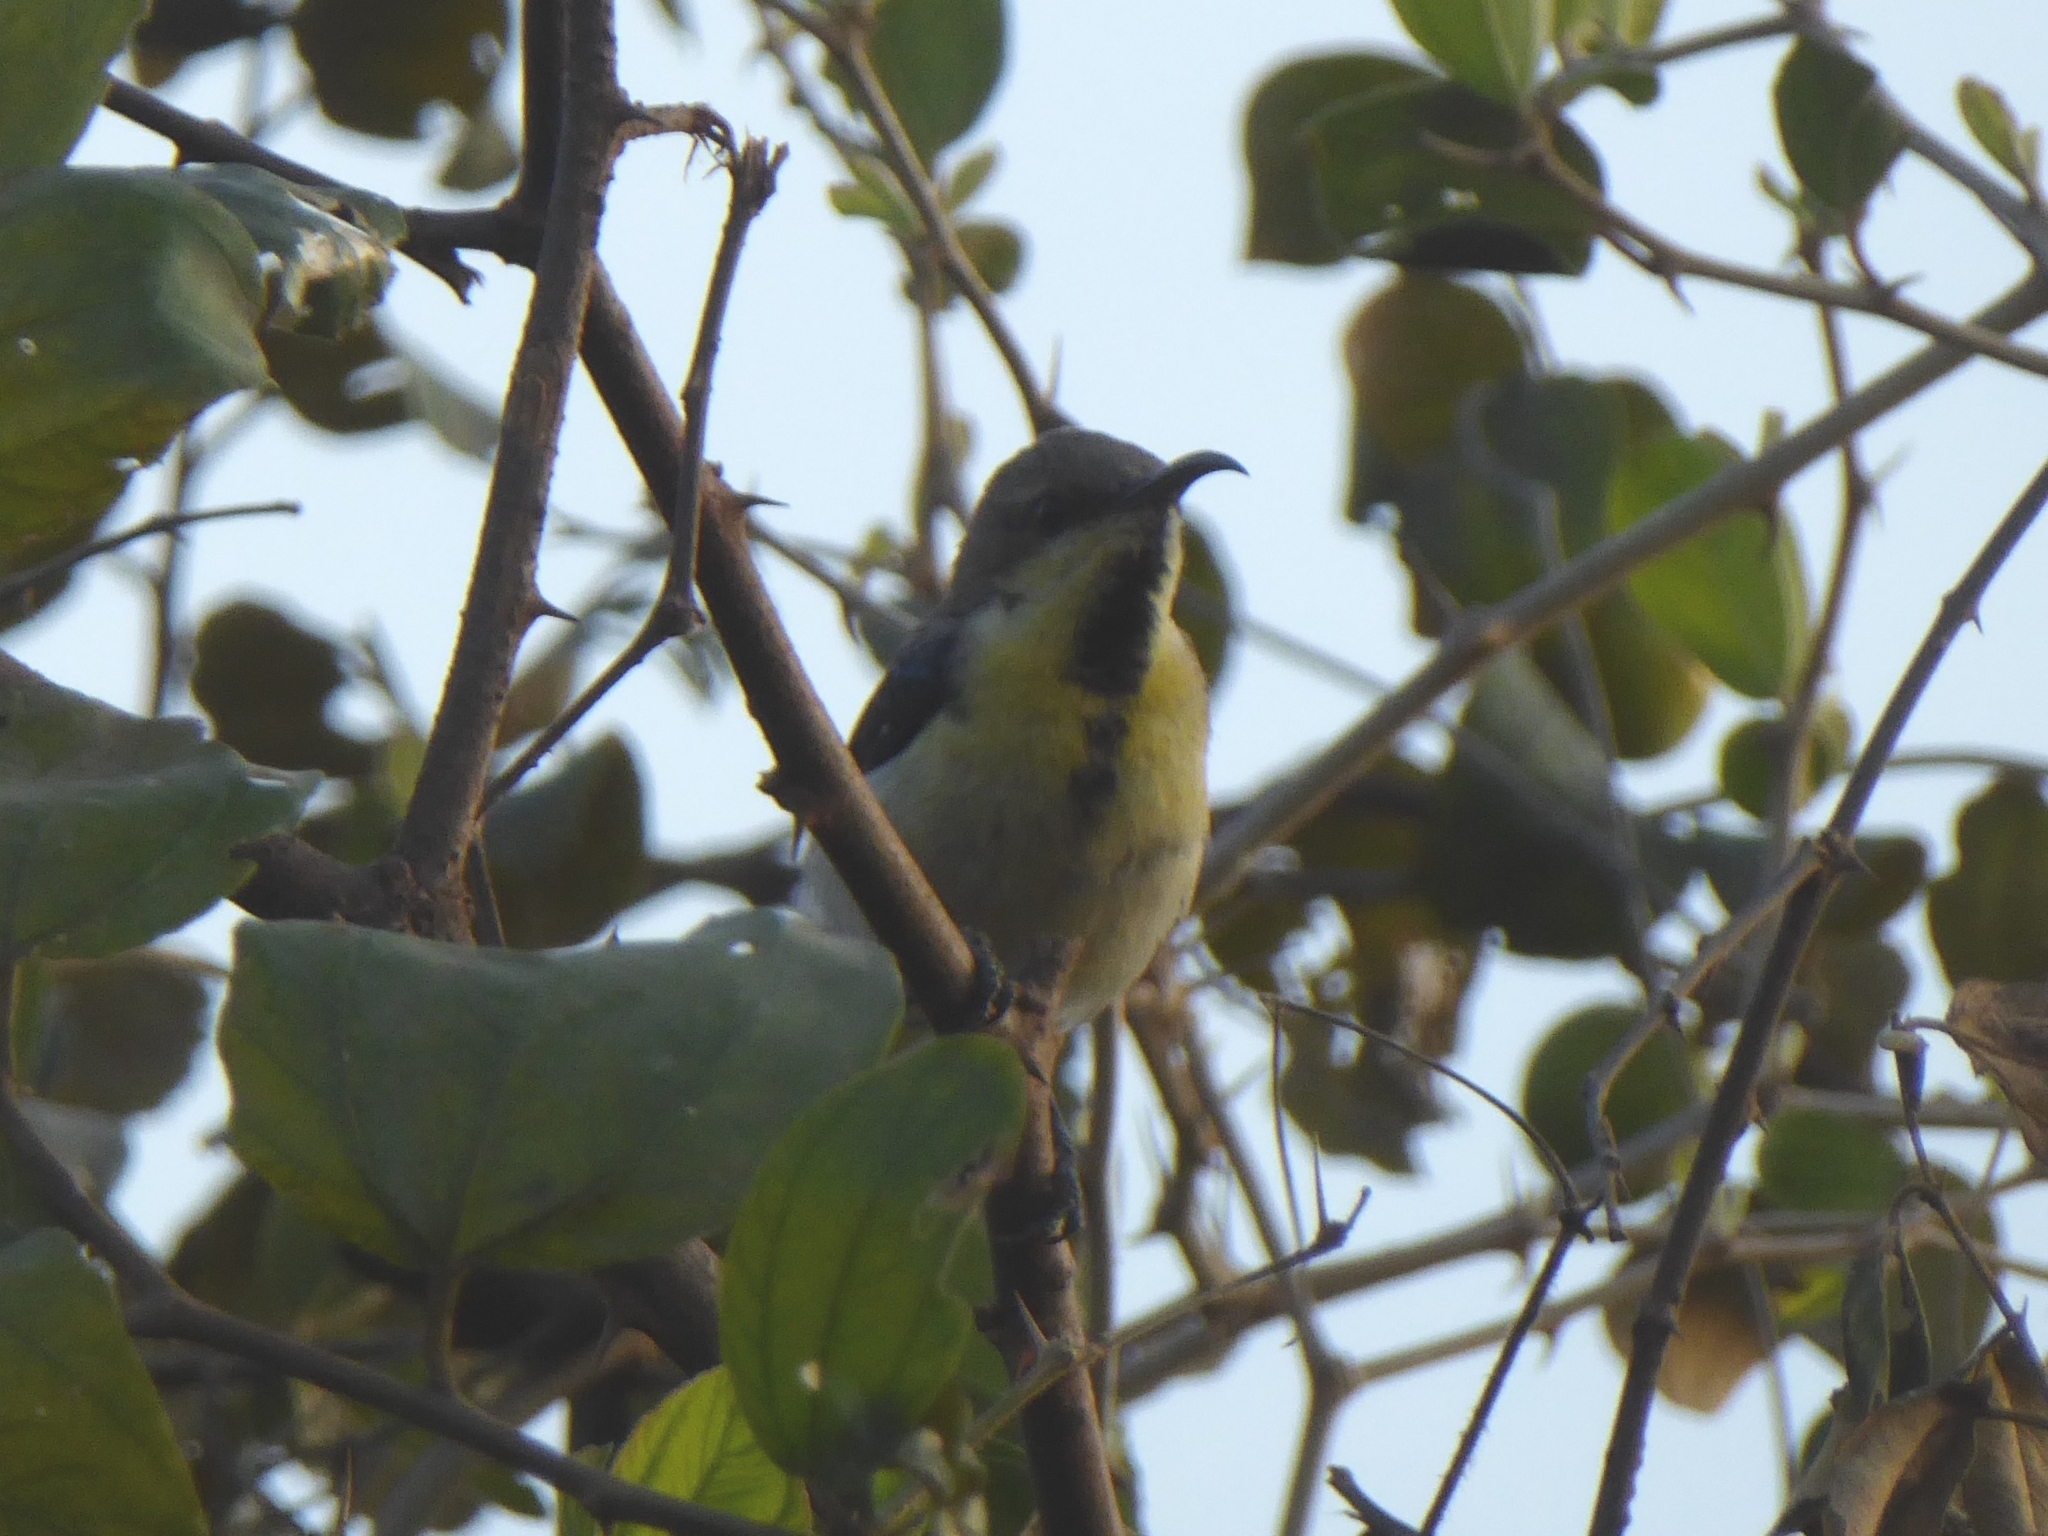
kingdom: Animalia
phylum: Chordata
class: Aves
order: Passeriformes
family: Nectariniidae
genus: Cinnyris
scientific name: Cinnyris asiaticus
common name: Purple sunbird
